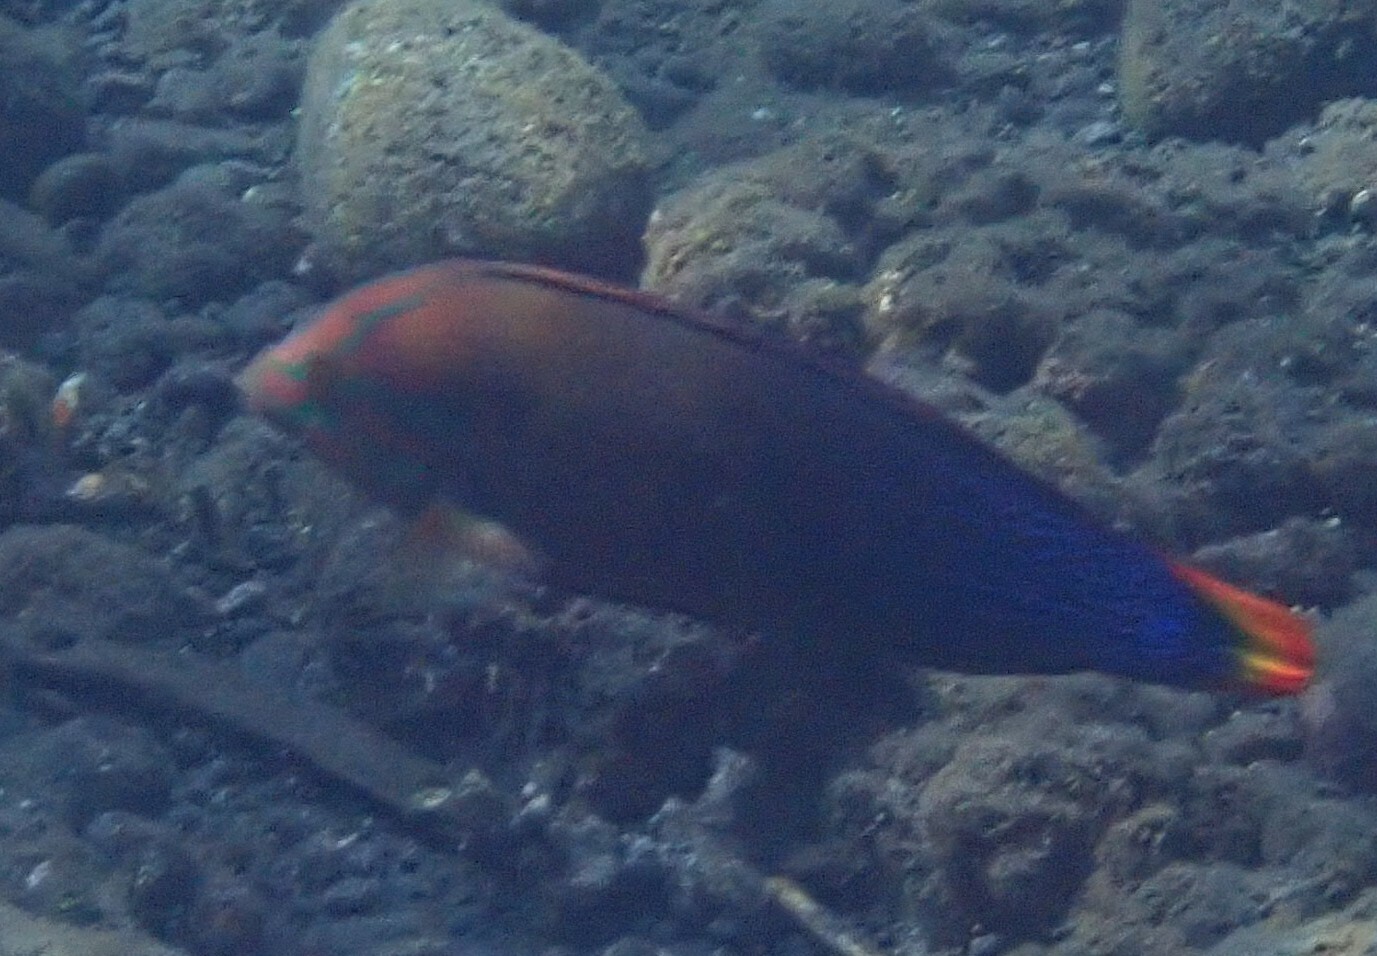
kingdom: Animalia
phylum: Chordata
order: Perciformes
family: Labridae
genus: Coris
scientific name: Coris gaimard
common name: Yellowtail coris
